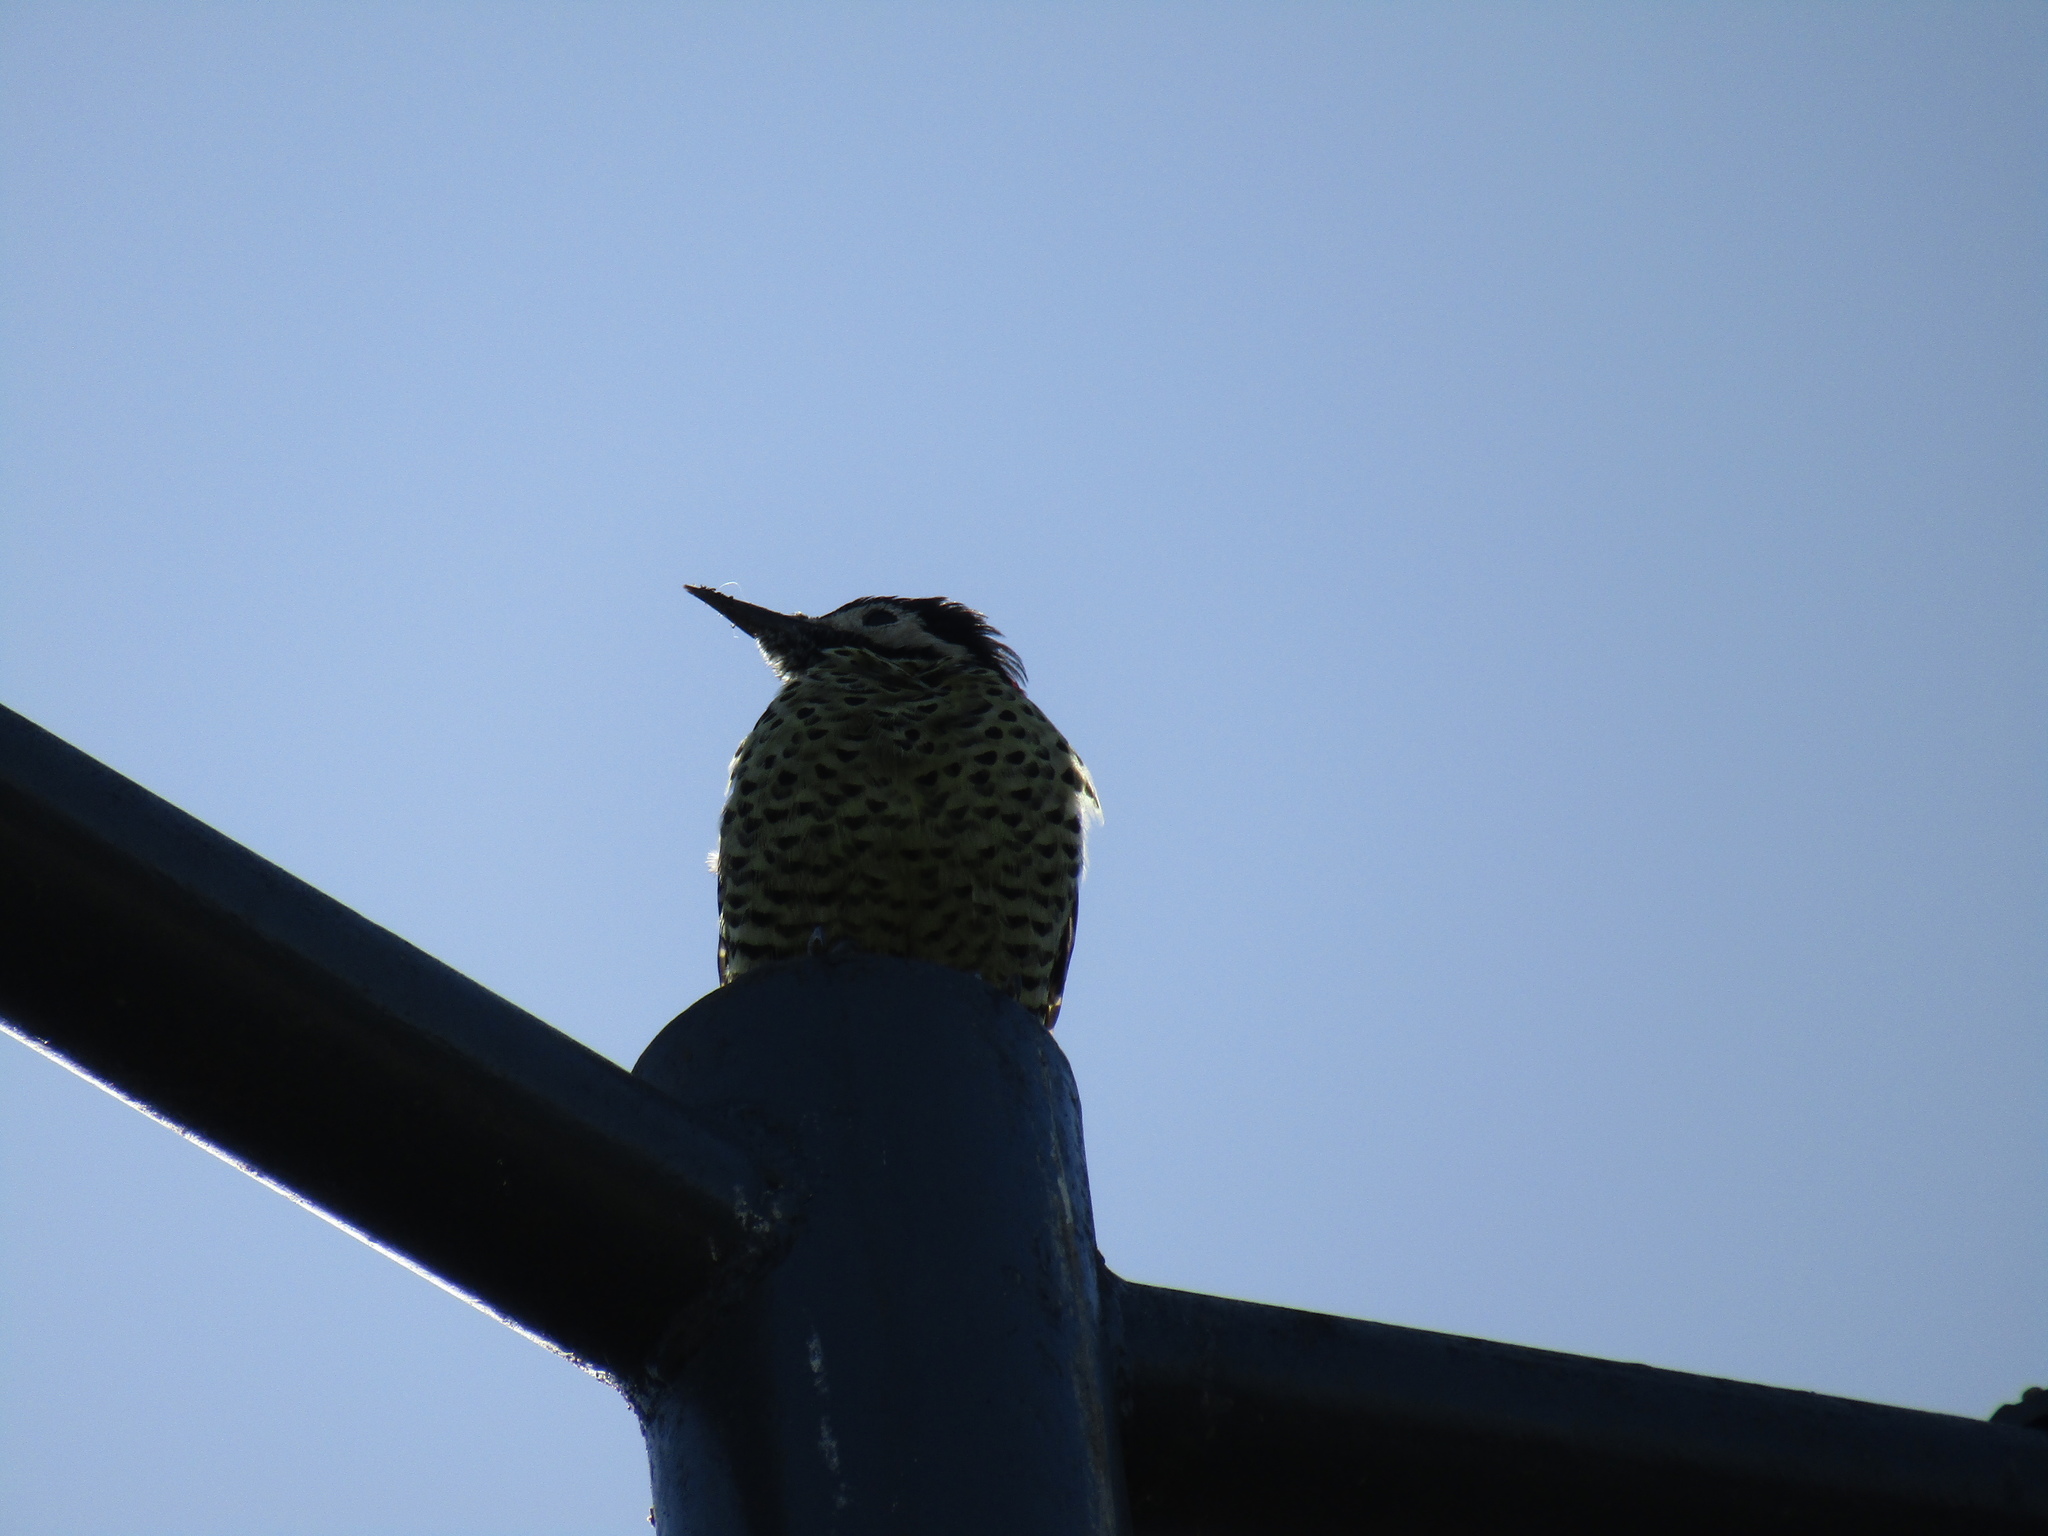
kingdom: Animalia
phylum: Chordata
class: Aves
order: Piciformes
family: Picidae
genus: Colaptes
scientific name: Colaptes melanochloros
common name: Green-barred woodpecker
